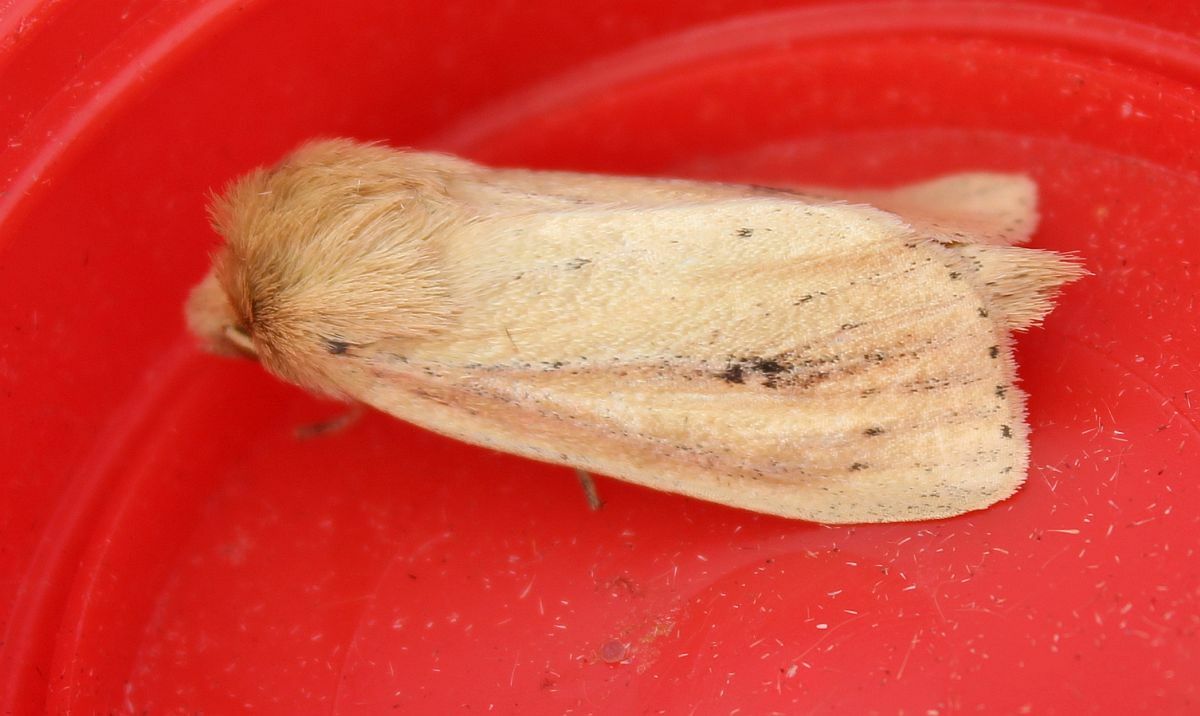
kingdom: Animalia
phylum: Arthropoda
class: Insecta
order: Lepidoptera
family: Noctuidae
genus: Globia
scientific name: Globia sparganii
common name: Webb's wainscot
